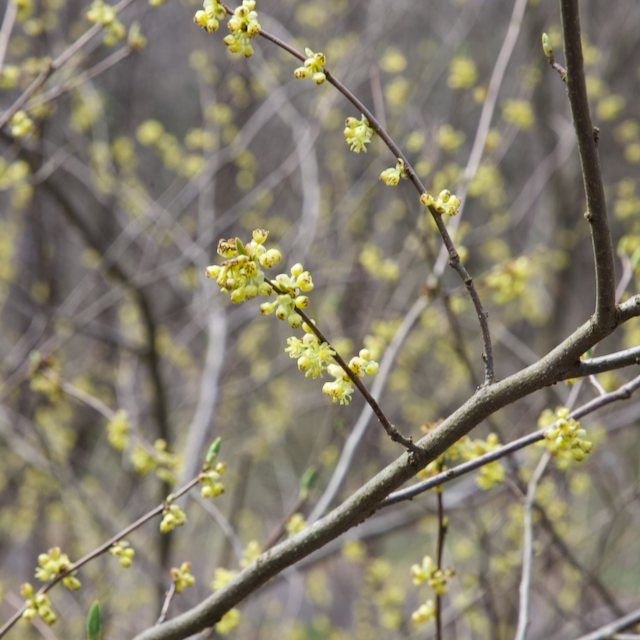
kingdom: Plantae
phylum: Tracheophyta
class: Magnoliopsida
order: Laurales
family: Lauraceae
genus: Lindera
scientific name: Lindera benzoin
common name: Spicebush
